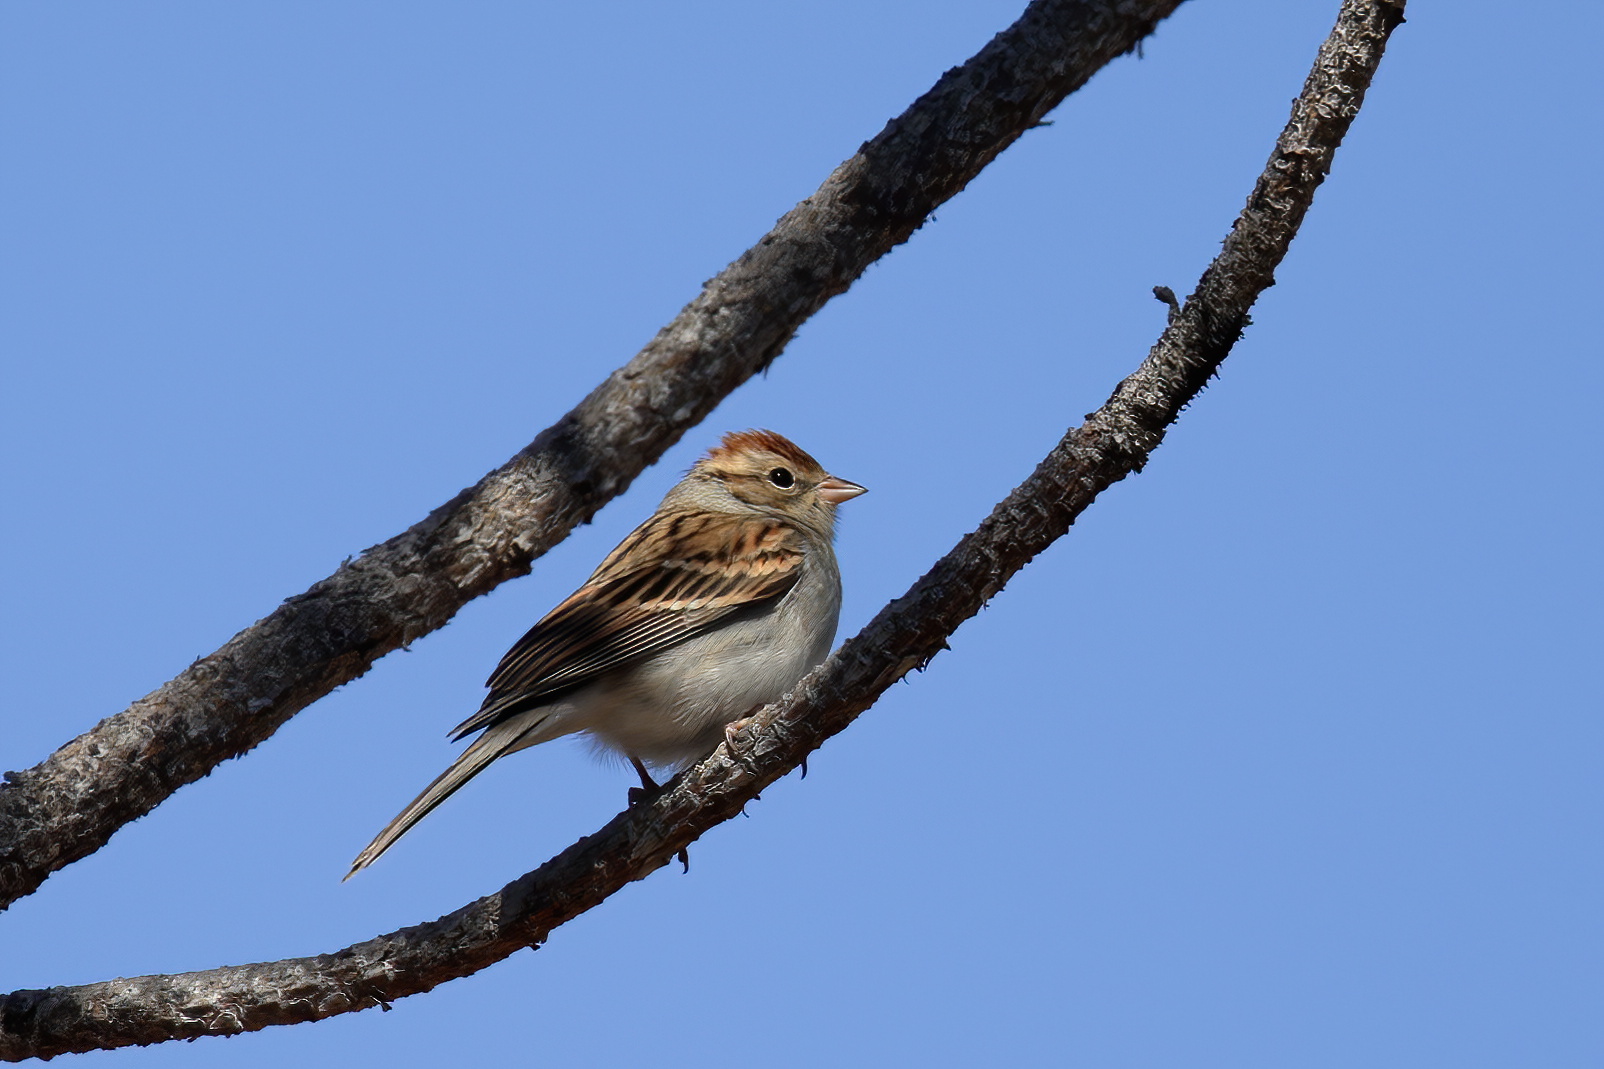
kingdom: Animalia
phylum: Chordata
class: Aves
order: Passeriformes
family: Passerellidae
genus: Spizella
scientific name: Spizella passerina
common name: Chipping sparrow
